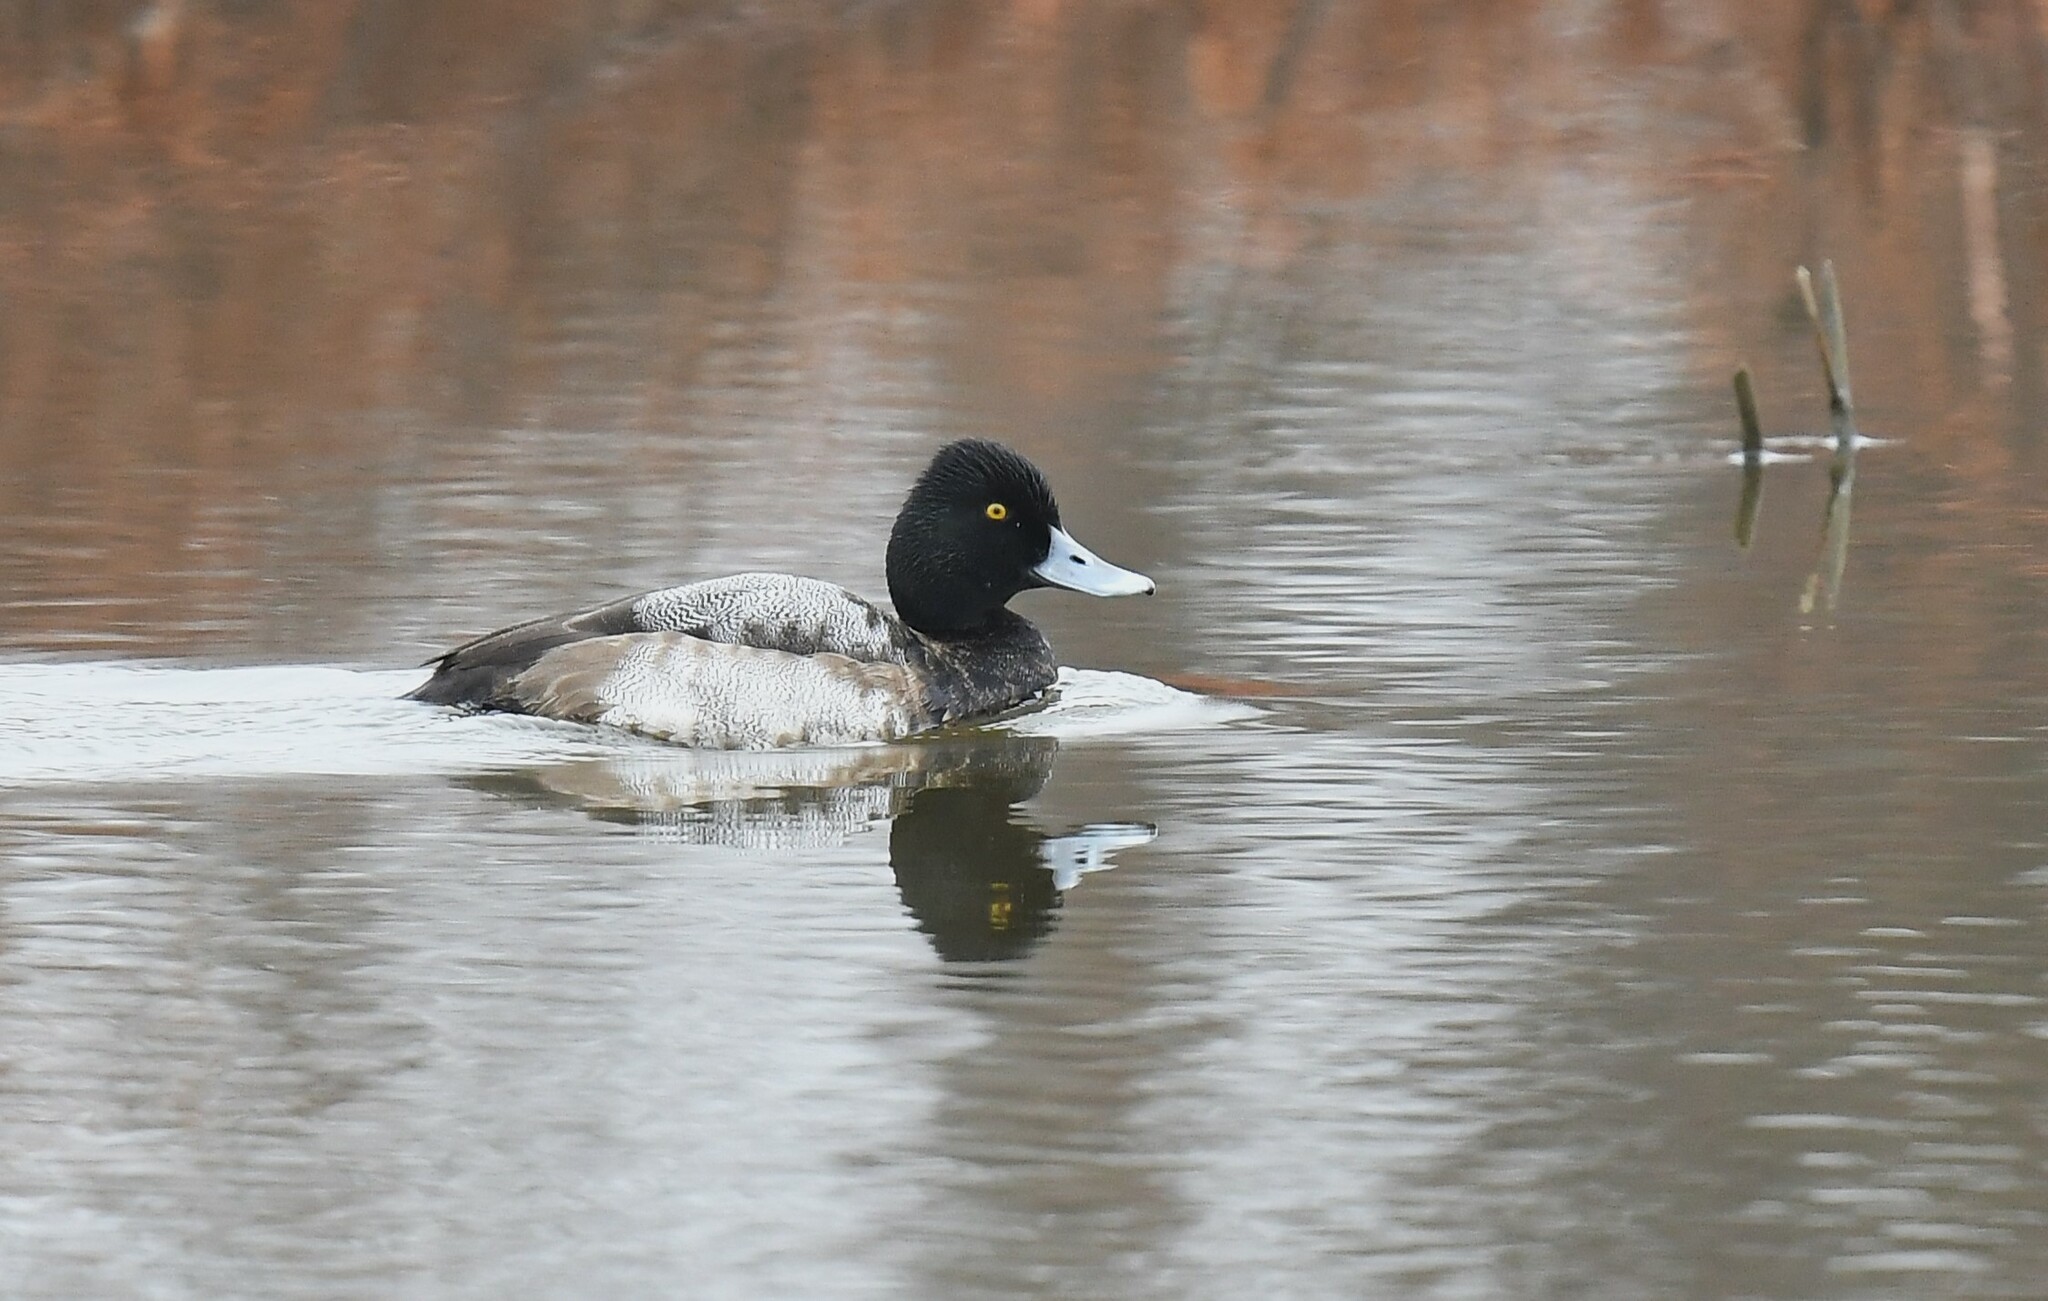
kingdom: Animalia
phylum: Chordata
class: Aves
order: Anseriformes
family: Anatidae
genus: Aythya
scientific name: Aythya affinis
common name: Lesser scaup
